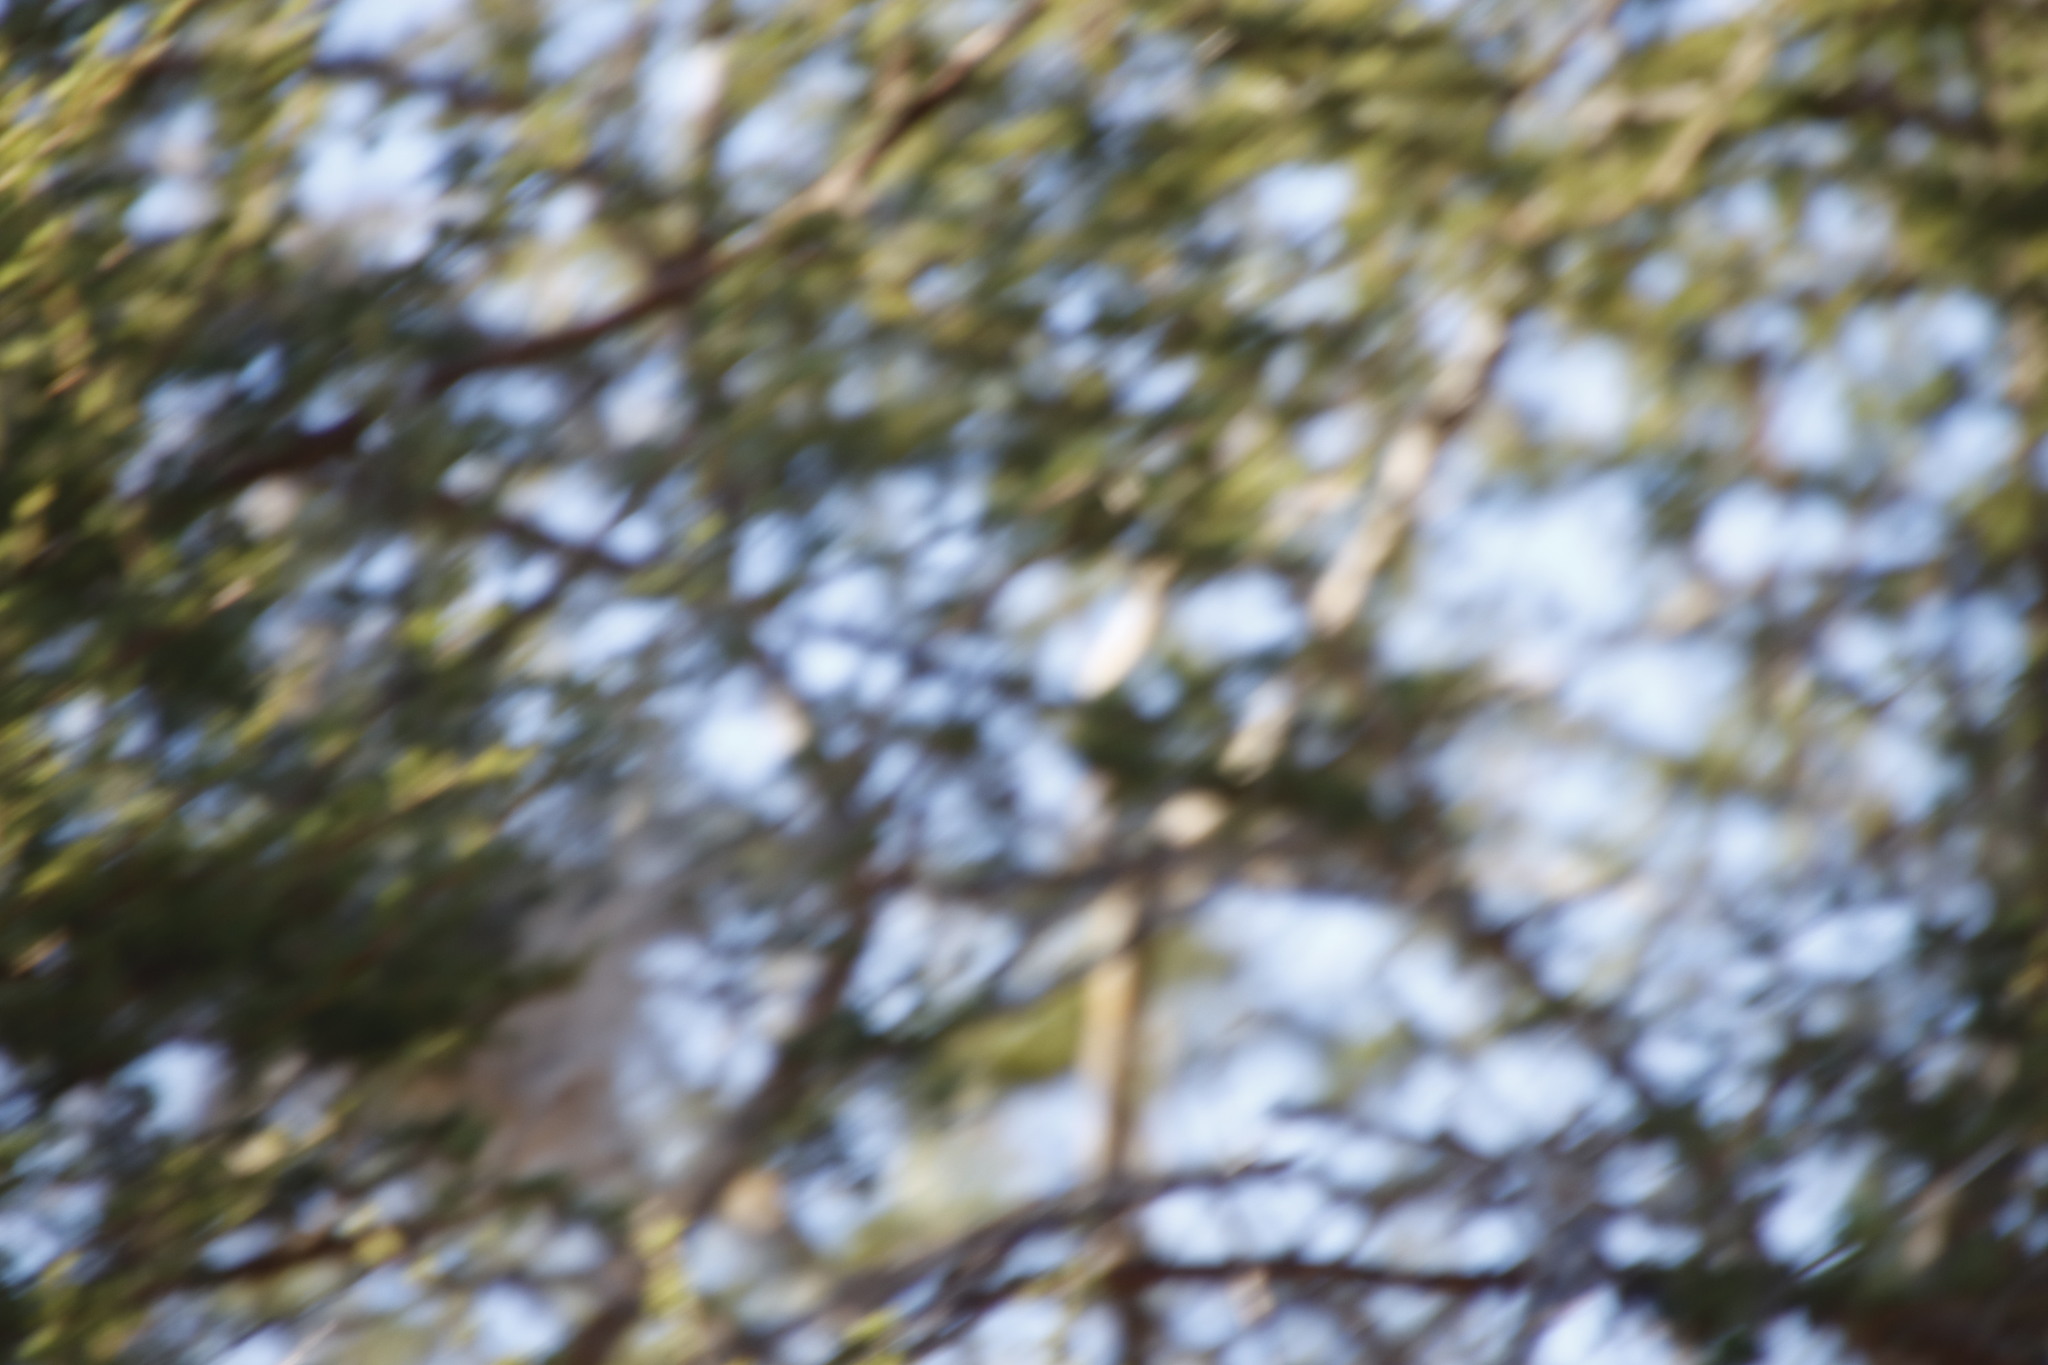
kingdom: Plantae
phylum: Tracheophyta
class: Magnoliopsida
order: Fabales
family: Fabaceae
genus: Vachellia
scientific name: Vachellia tortilis
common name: Umbrella thorn acacia
